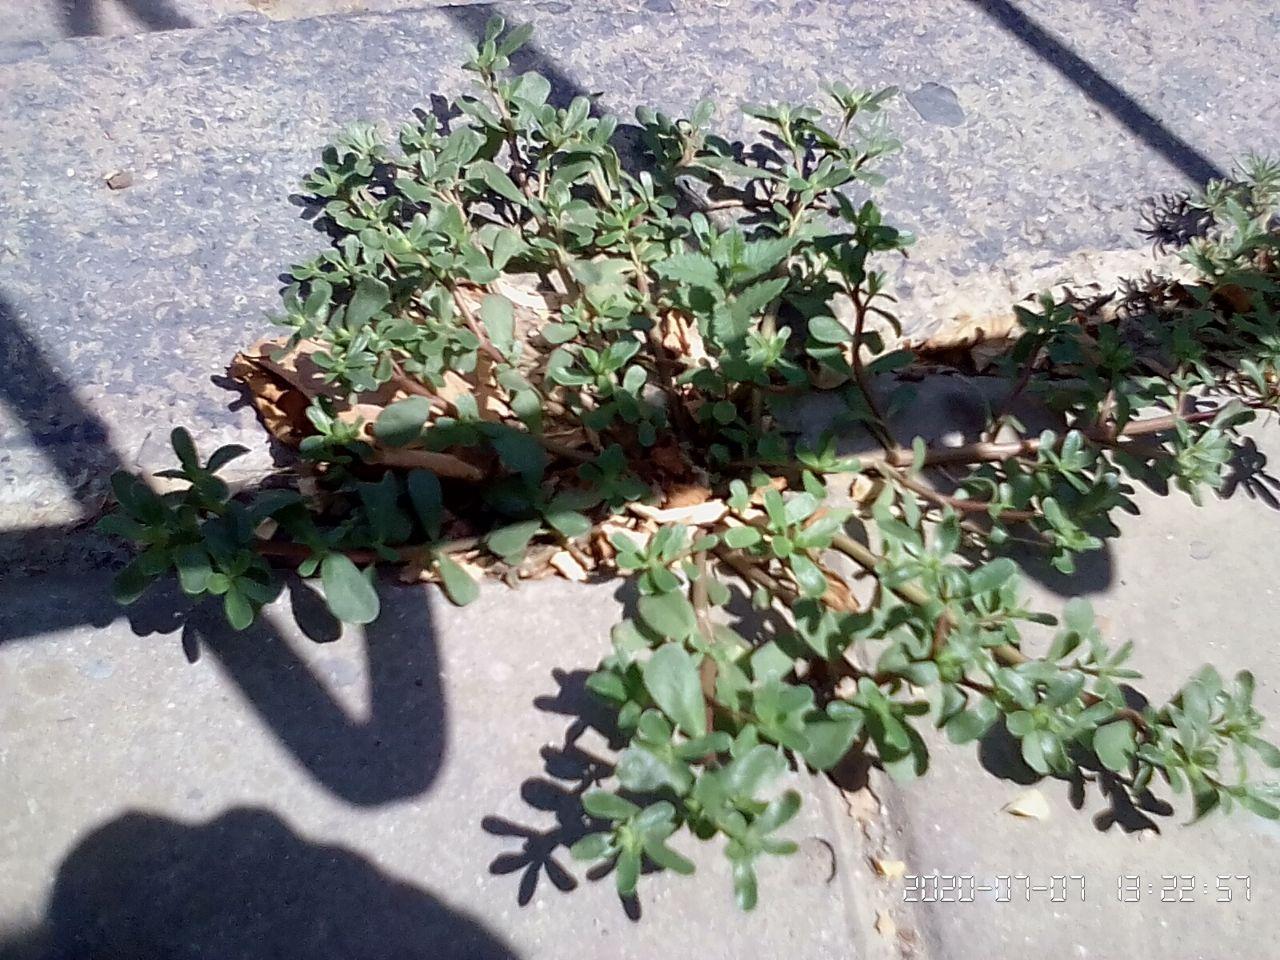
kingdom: Plantae
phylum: Tracheophyta
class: Magnoliopsida
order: Caryophyllales
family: Portulacaceae
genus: Portulaca
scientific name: Portulaca oleracea
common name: Common purslane
